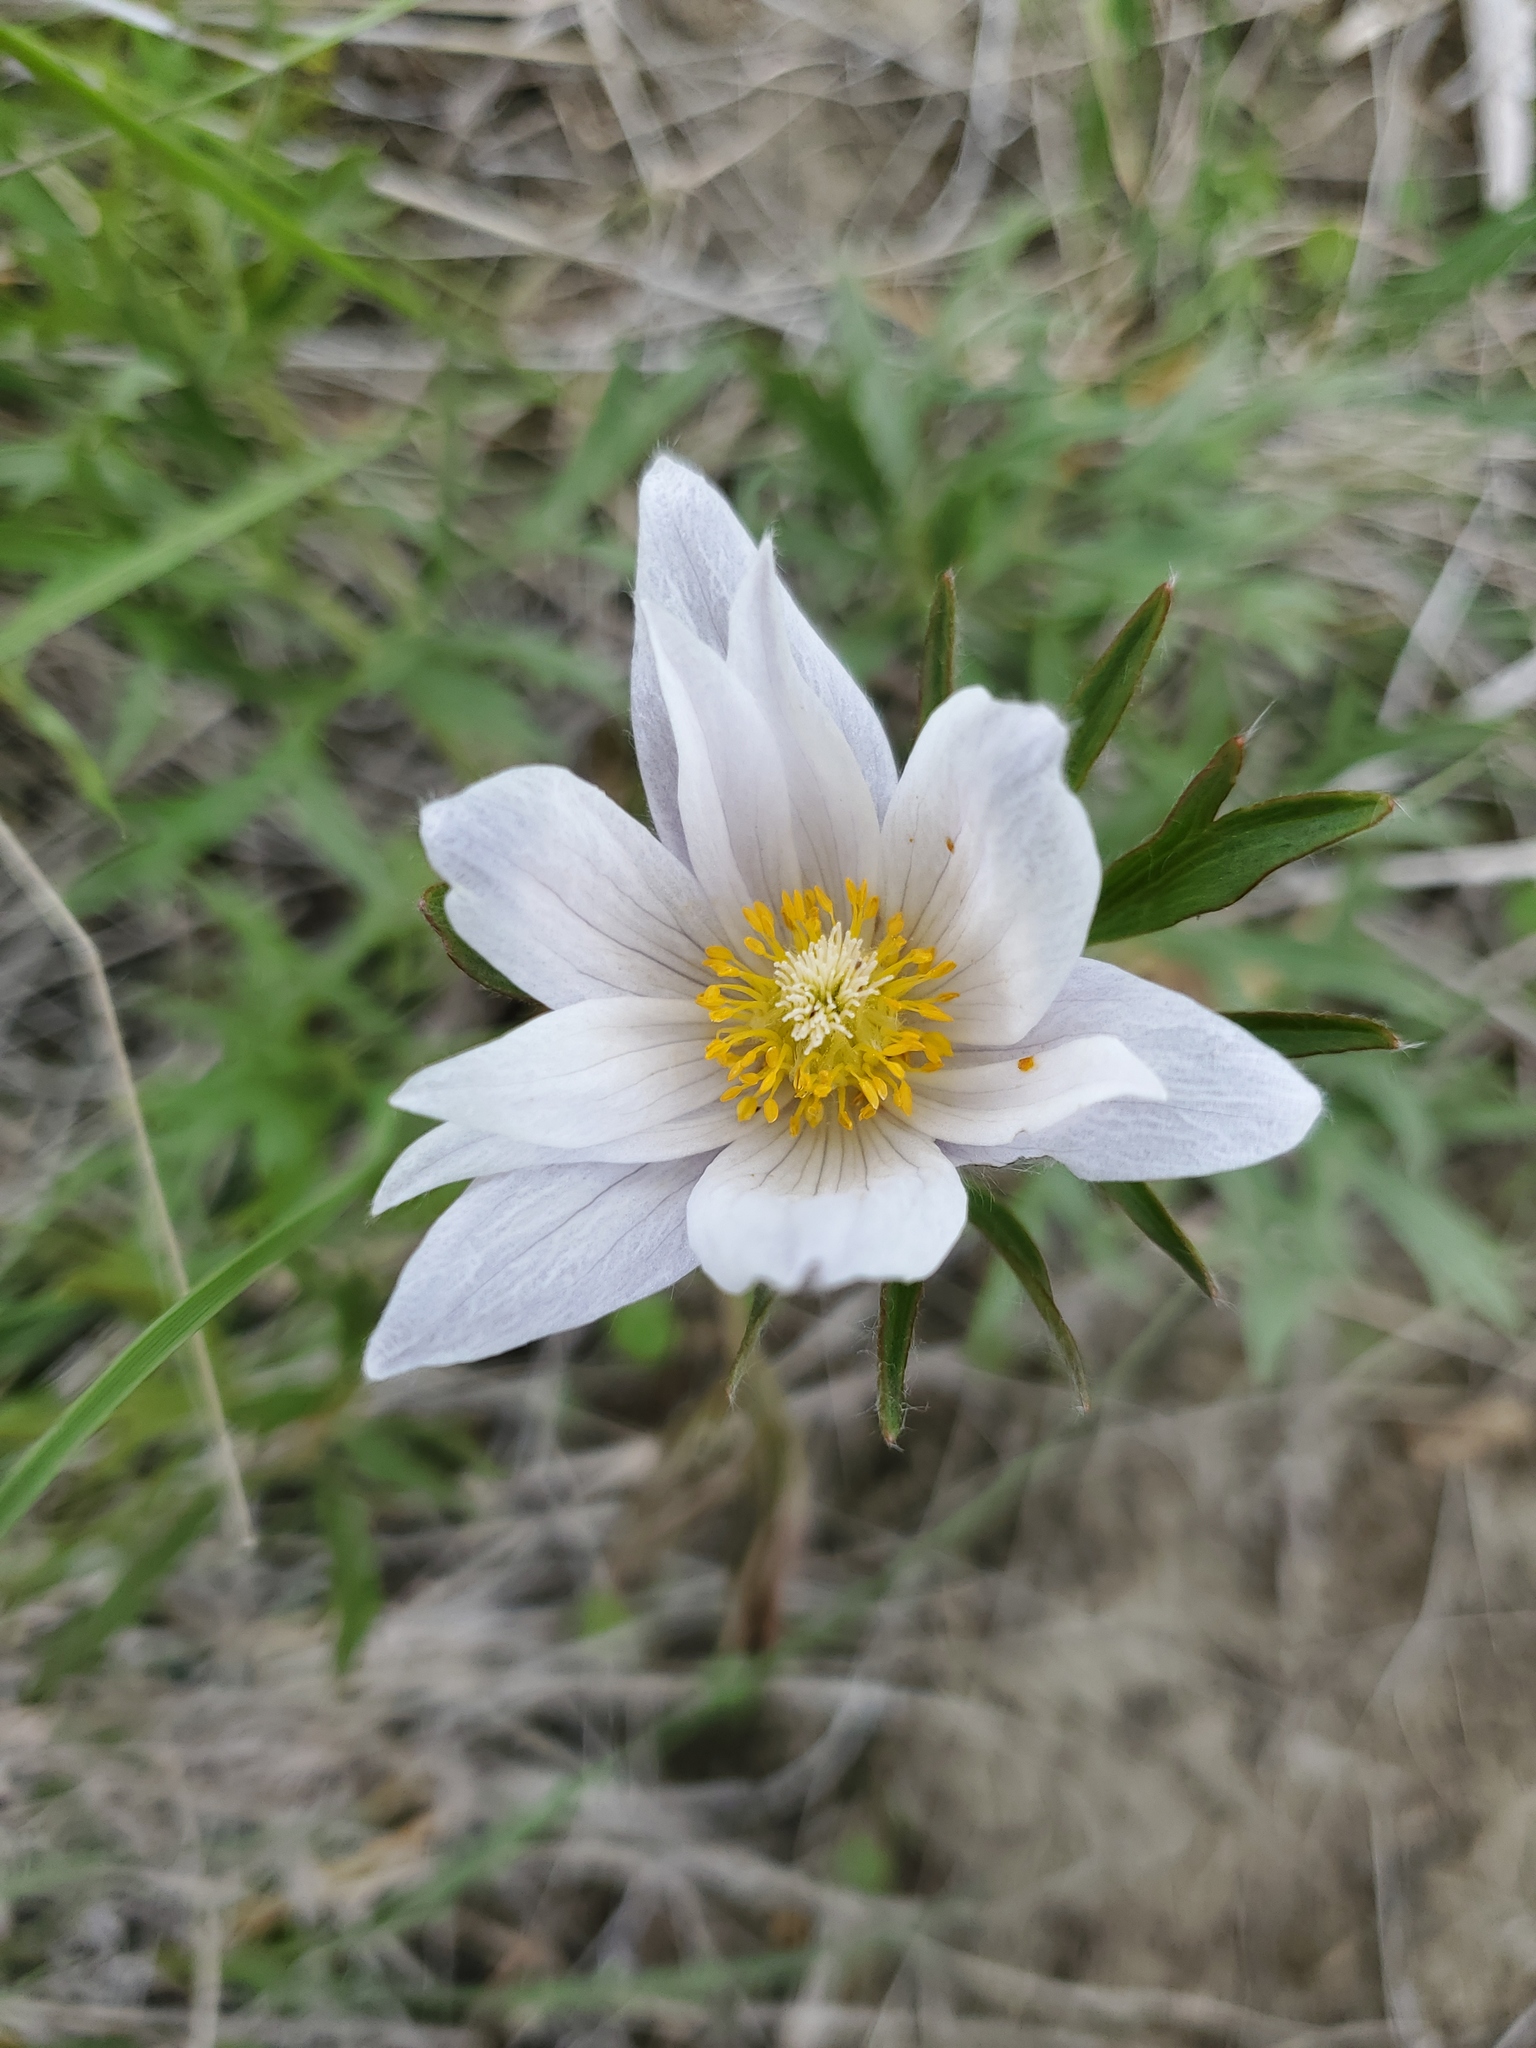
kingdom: Plantae
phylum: Tracheophyta
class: Magnoliopsida
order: Ranunculales
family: Ranunculaceae
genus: Pulsatilla
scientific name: Pulsatilla nuttalliana
